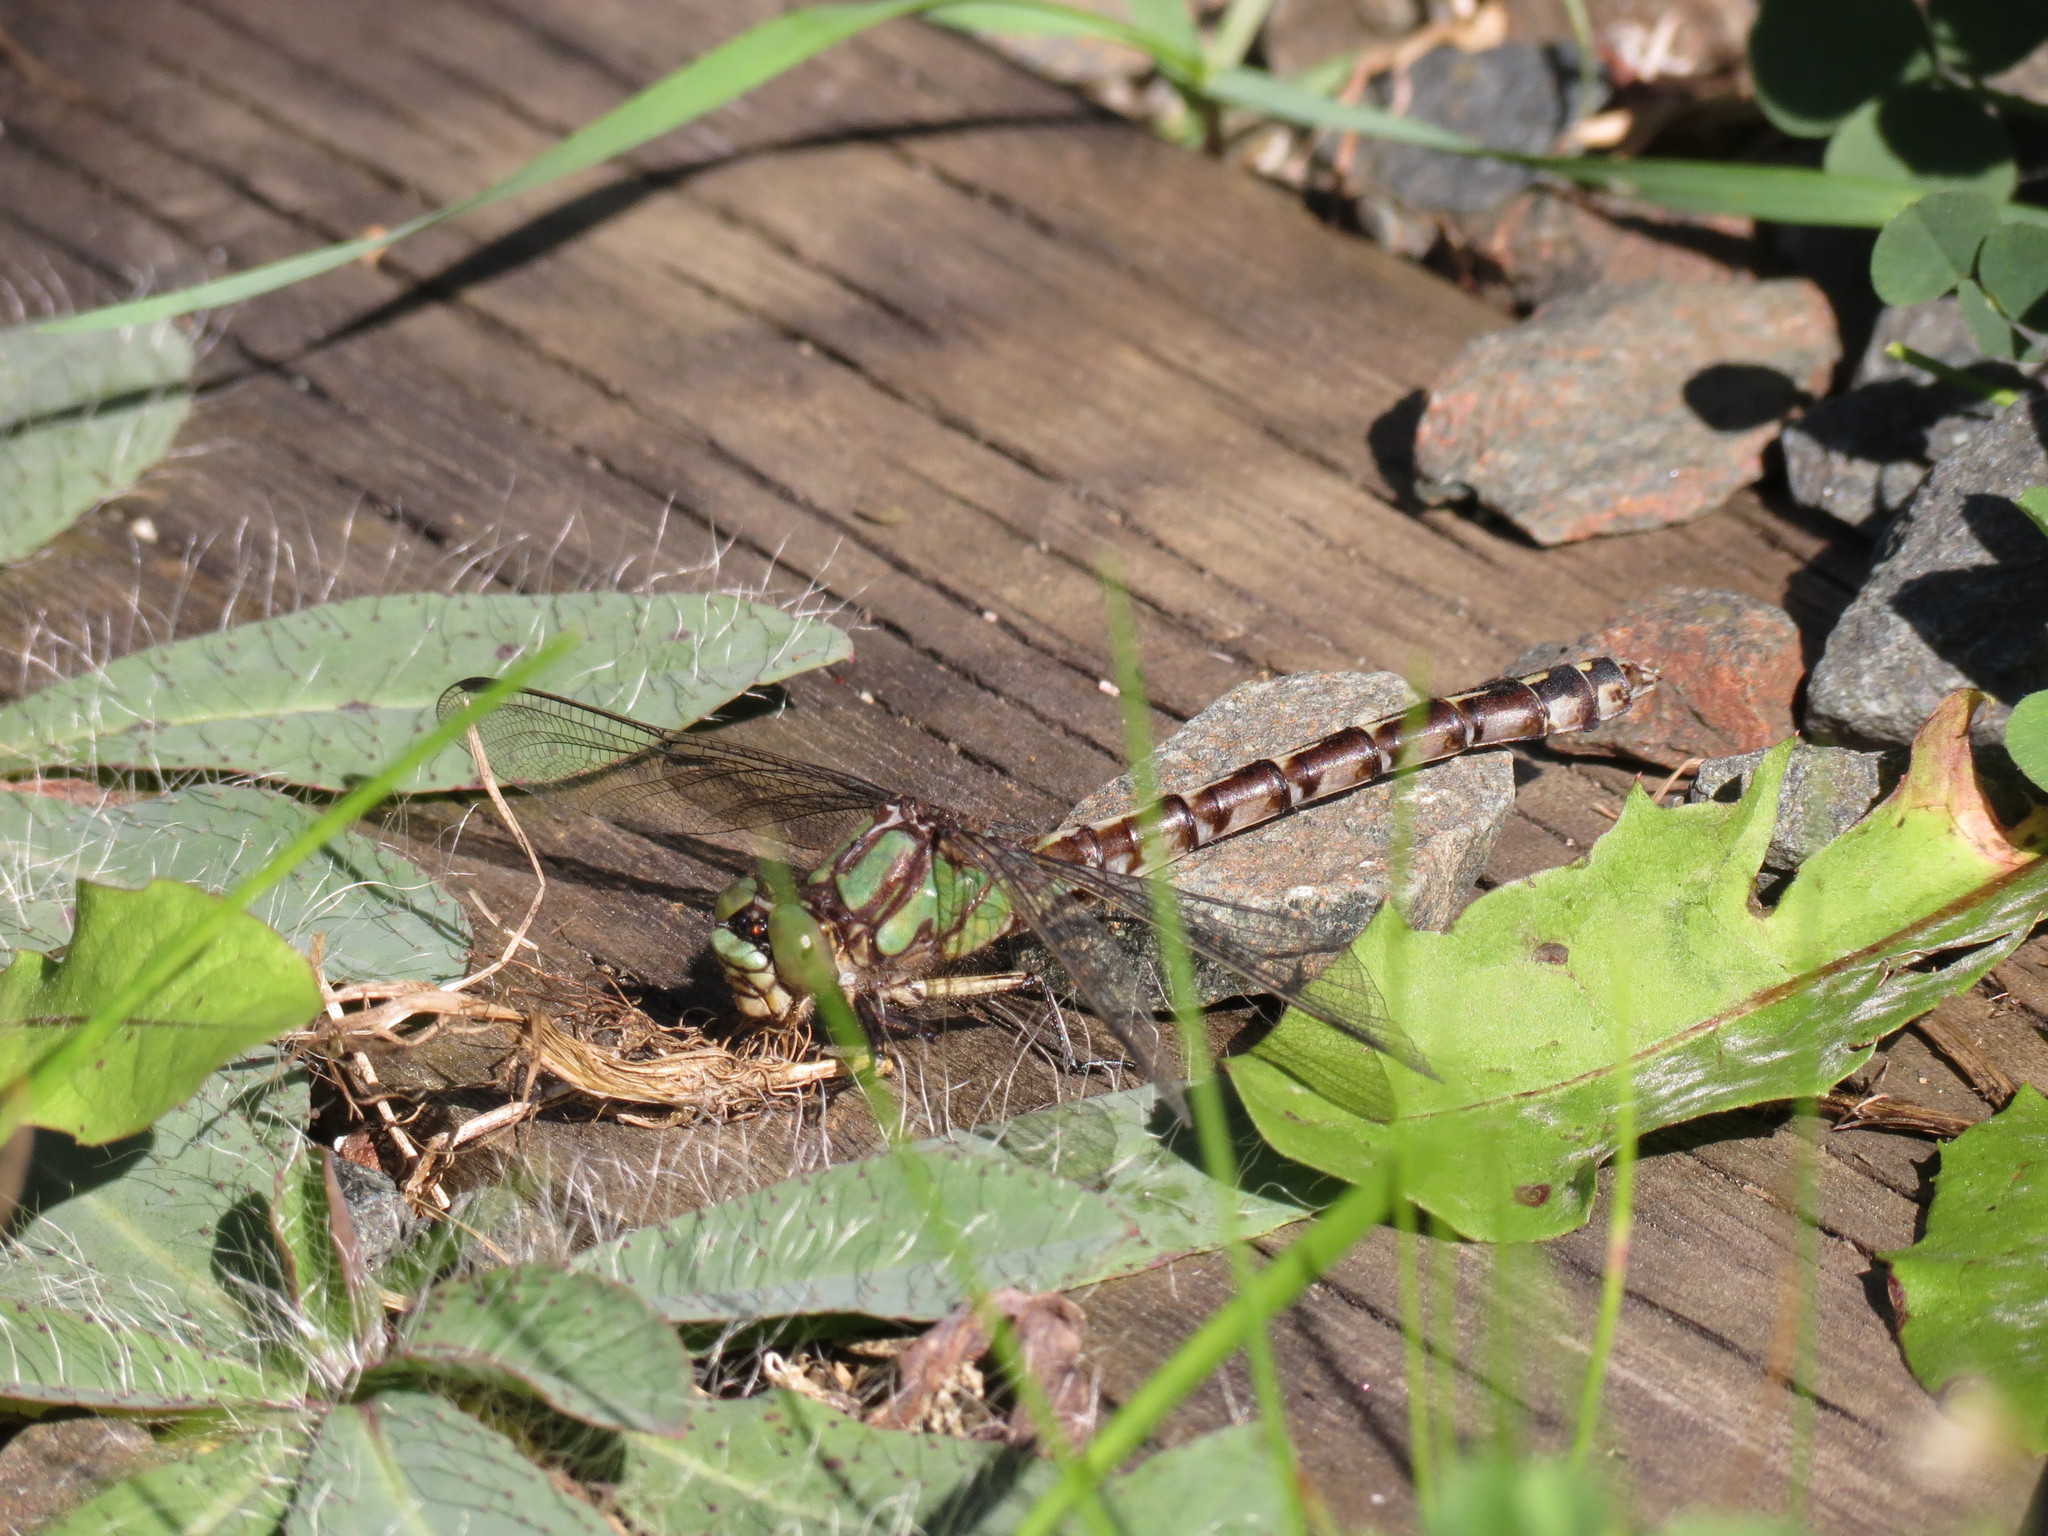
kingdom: Animalia
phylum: Arthropoda
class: Insecta
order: Odonata
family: Gomphidae
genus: Ophiogomphus
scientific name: Ophiogomphus colubrinus
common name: Boreal snaketail
